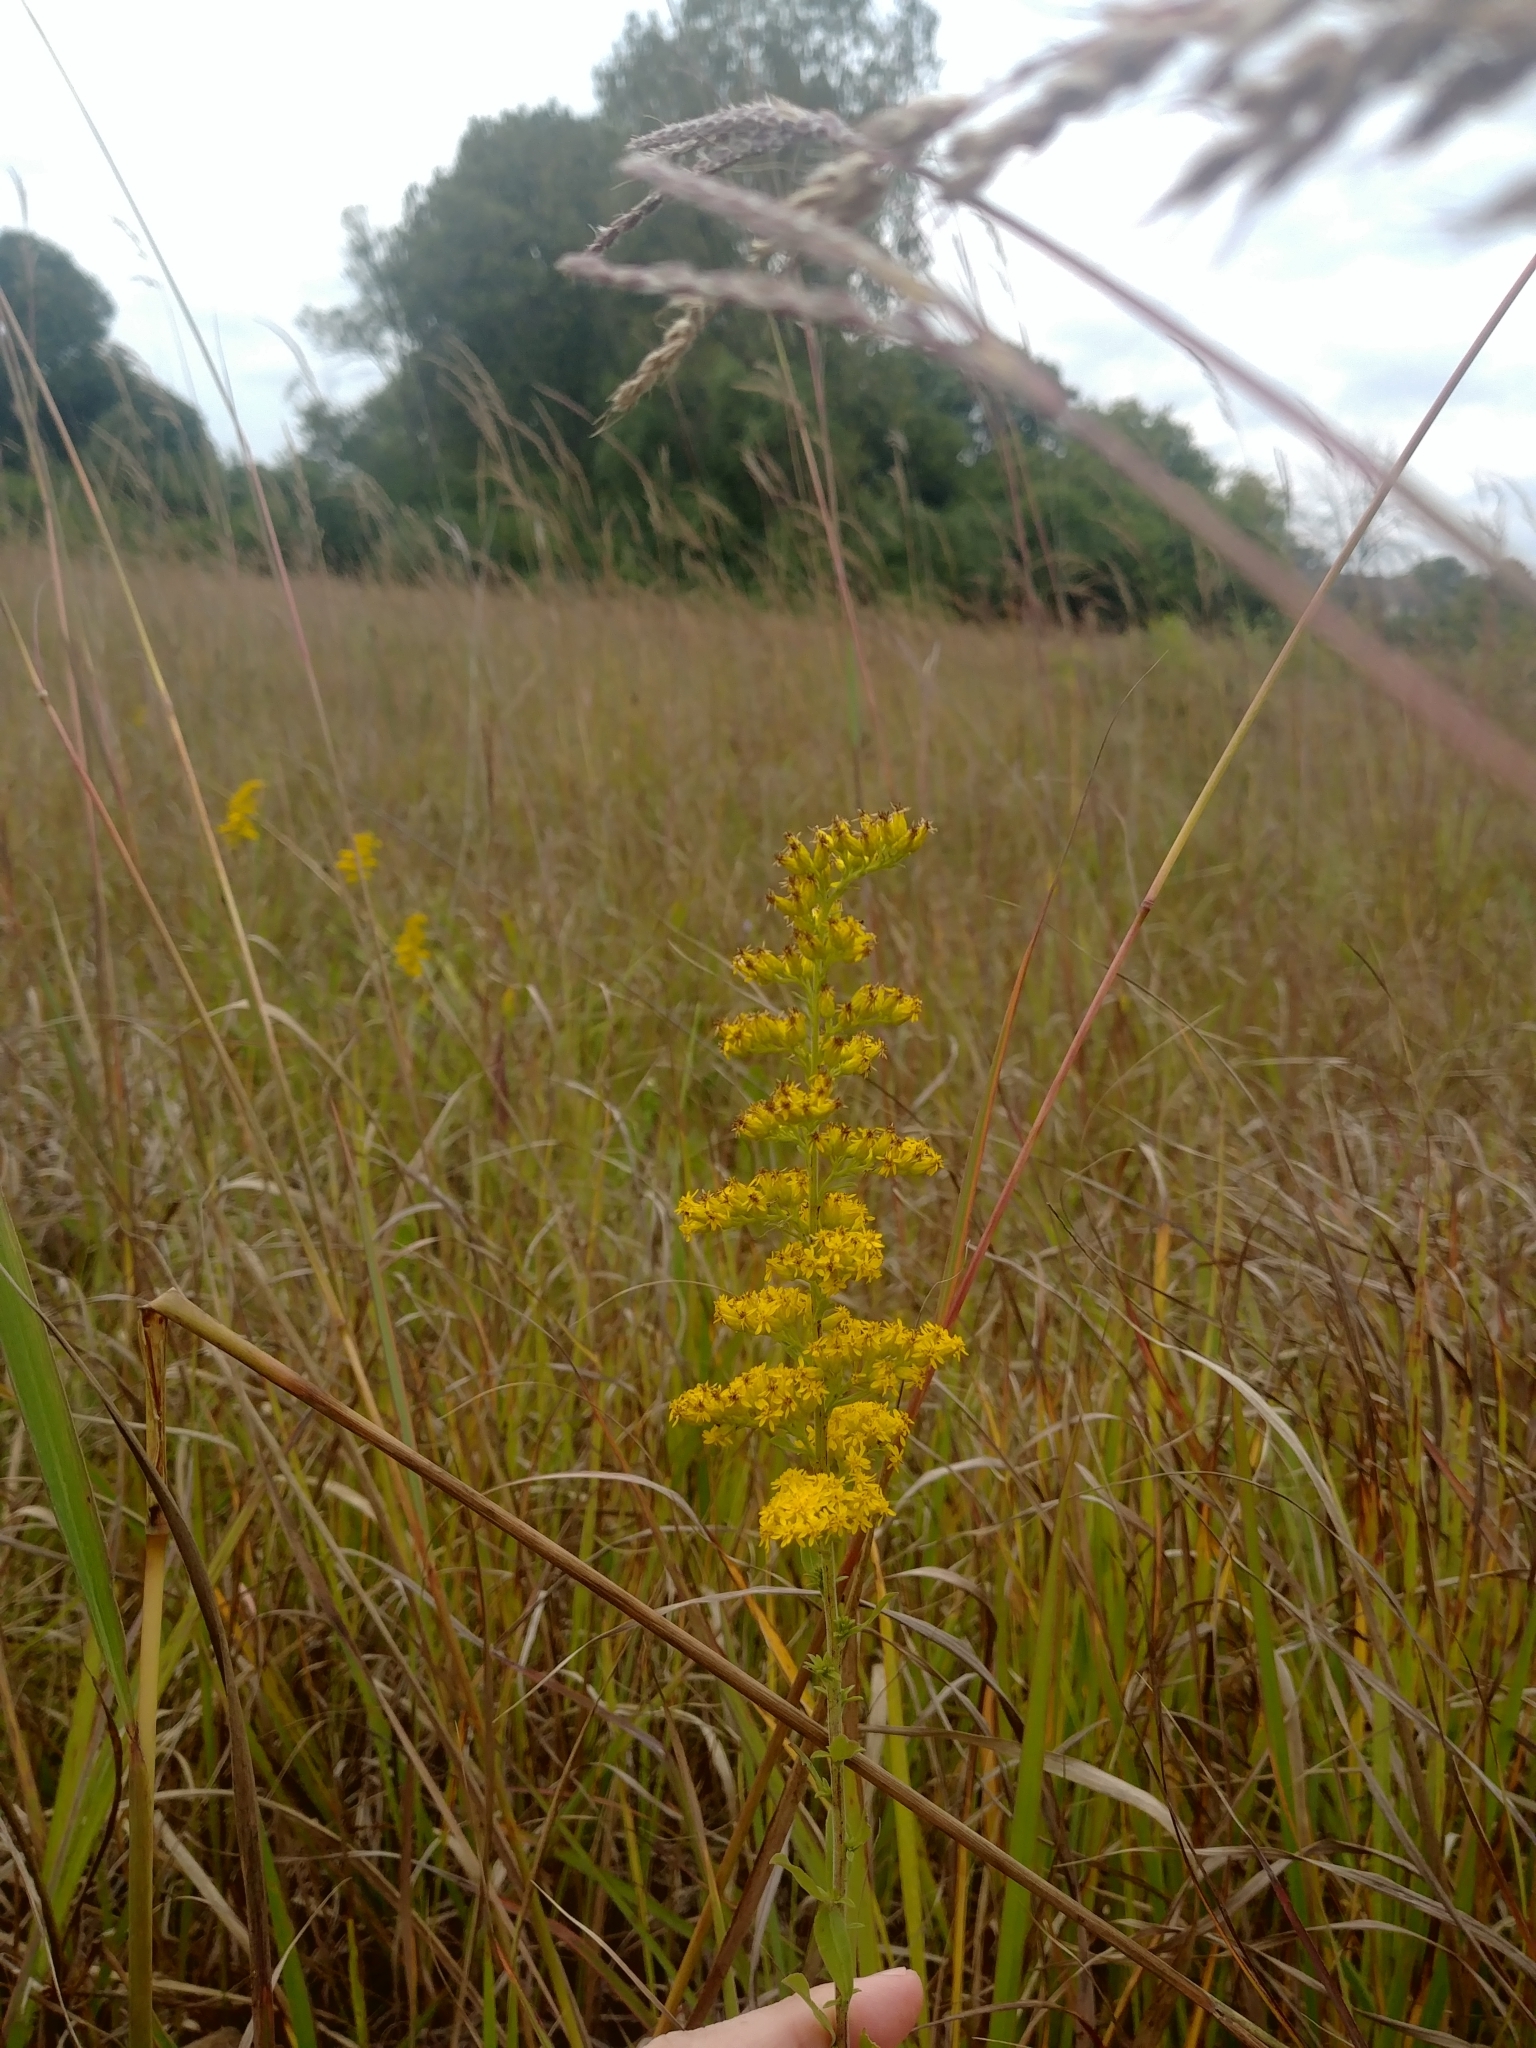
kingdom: Plantae
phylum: Tracheophyta
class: Magnoliopsida
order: Asterales
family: Asteraceae
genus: Solidago
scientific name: Solidago nemoralis
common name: Grey goldenrod
